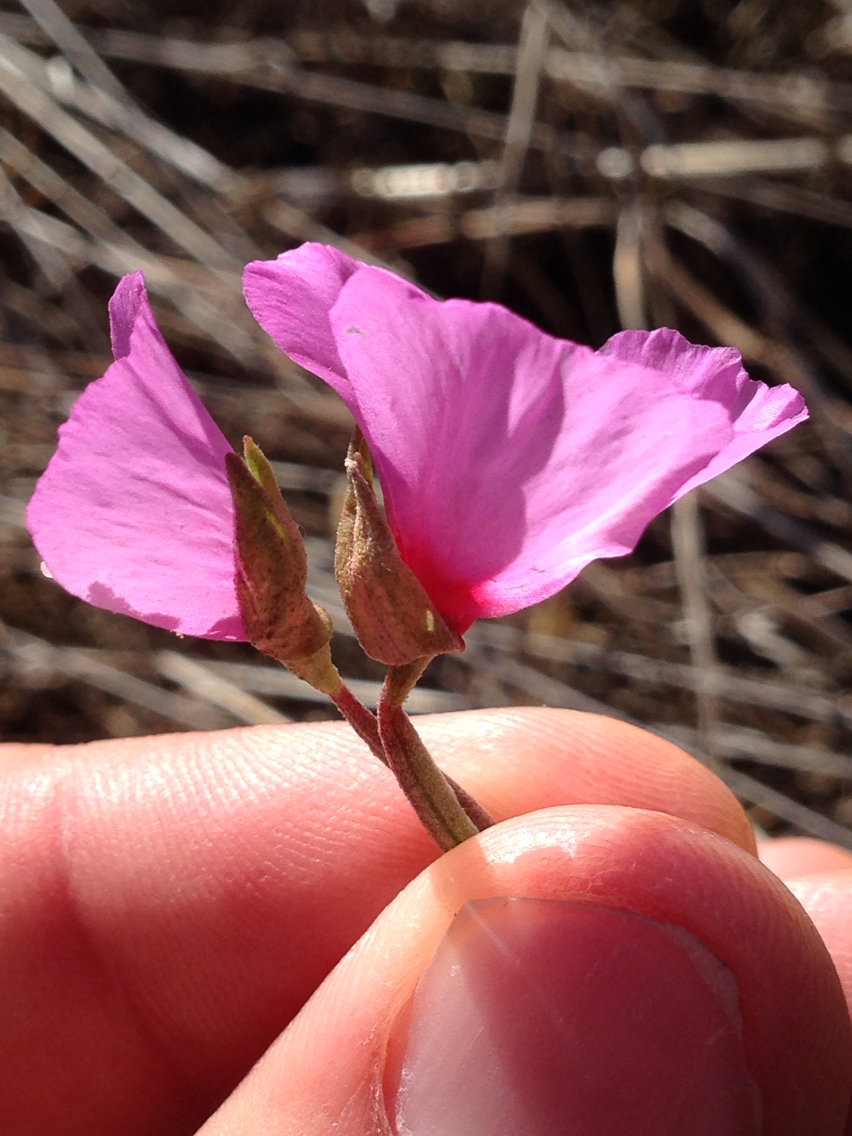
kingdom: Plantae
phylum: Tracheophyta
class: Magnoliopsida
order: Myrtales
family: Onagraceae
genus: Clarkia
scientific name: Clarkia rubicunda
